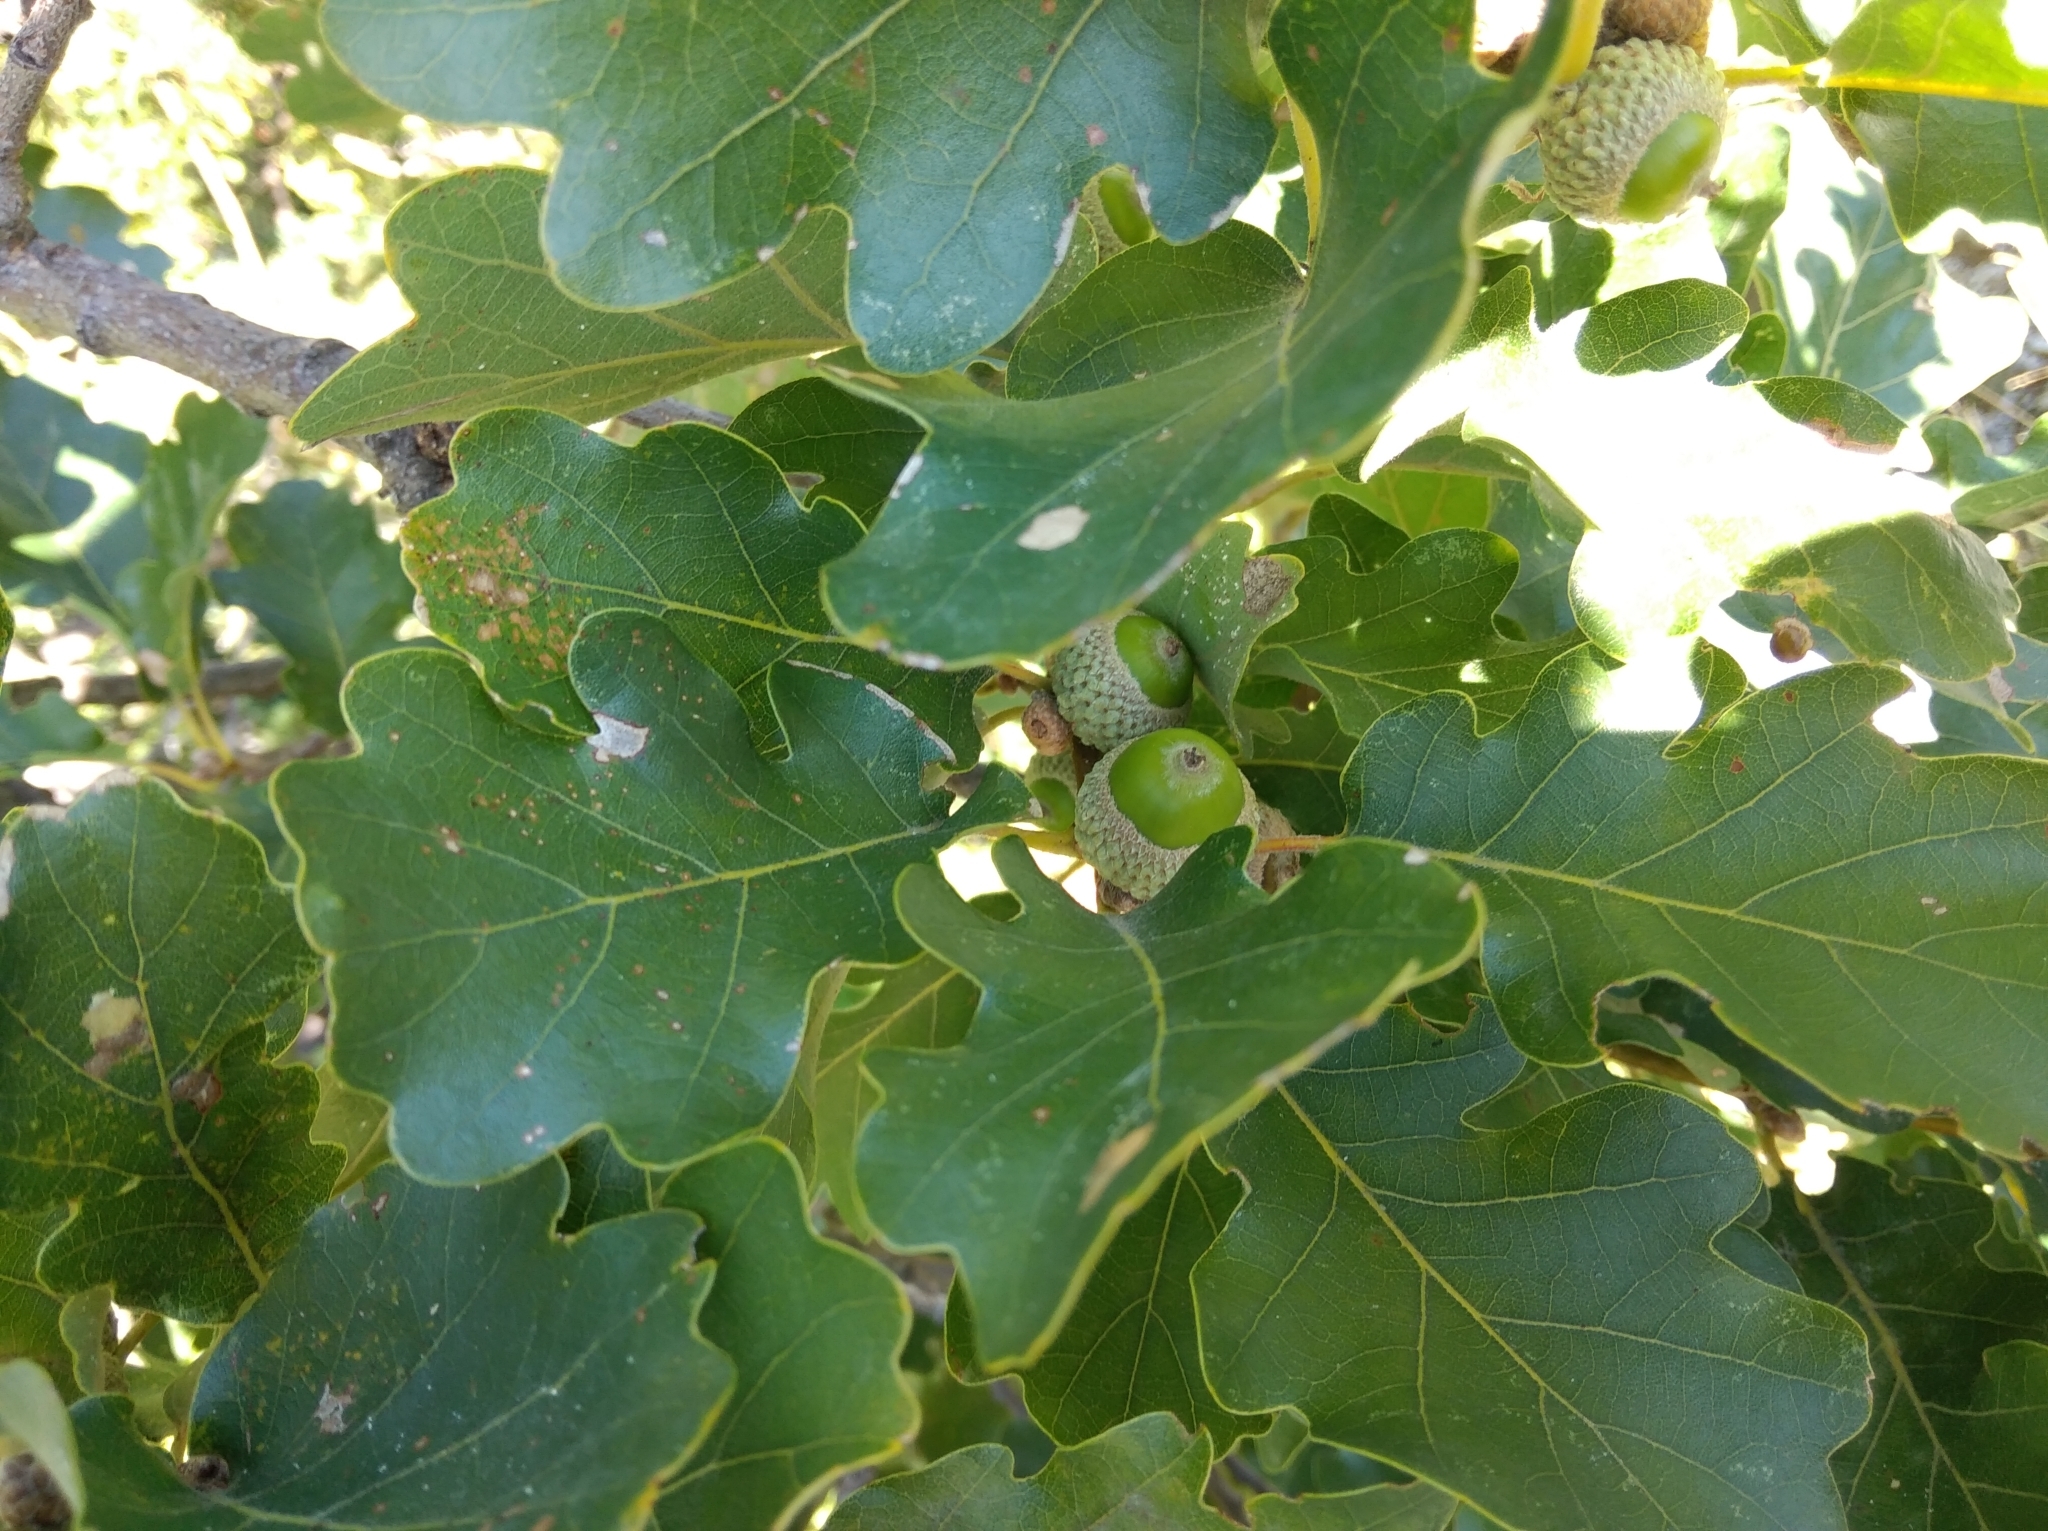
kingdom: Plantae
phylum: Tracheophyta
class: Magnoliopsida
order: Fagales
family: Fagaceae
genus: Quercus
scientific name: Quercus petraea
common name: Sessile oak
